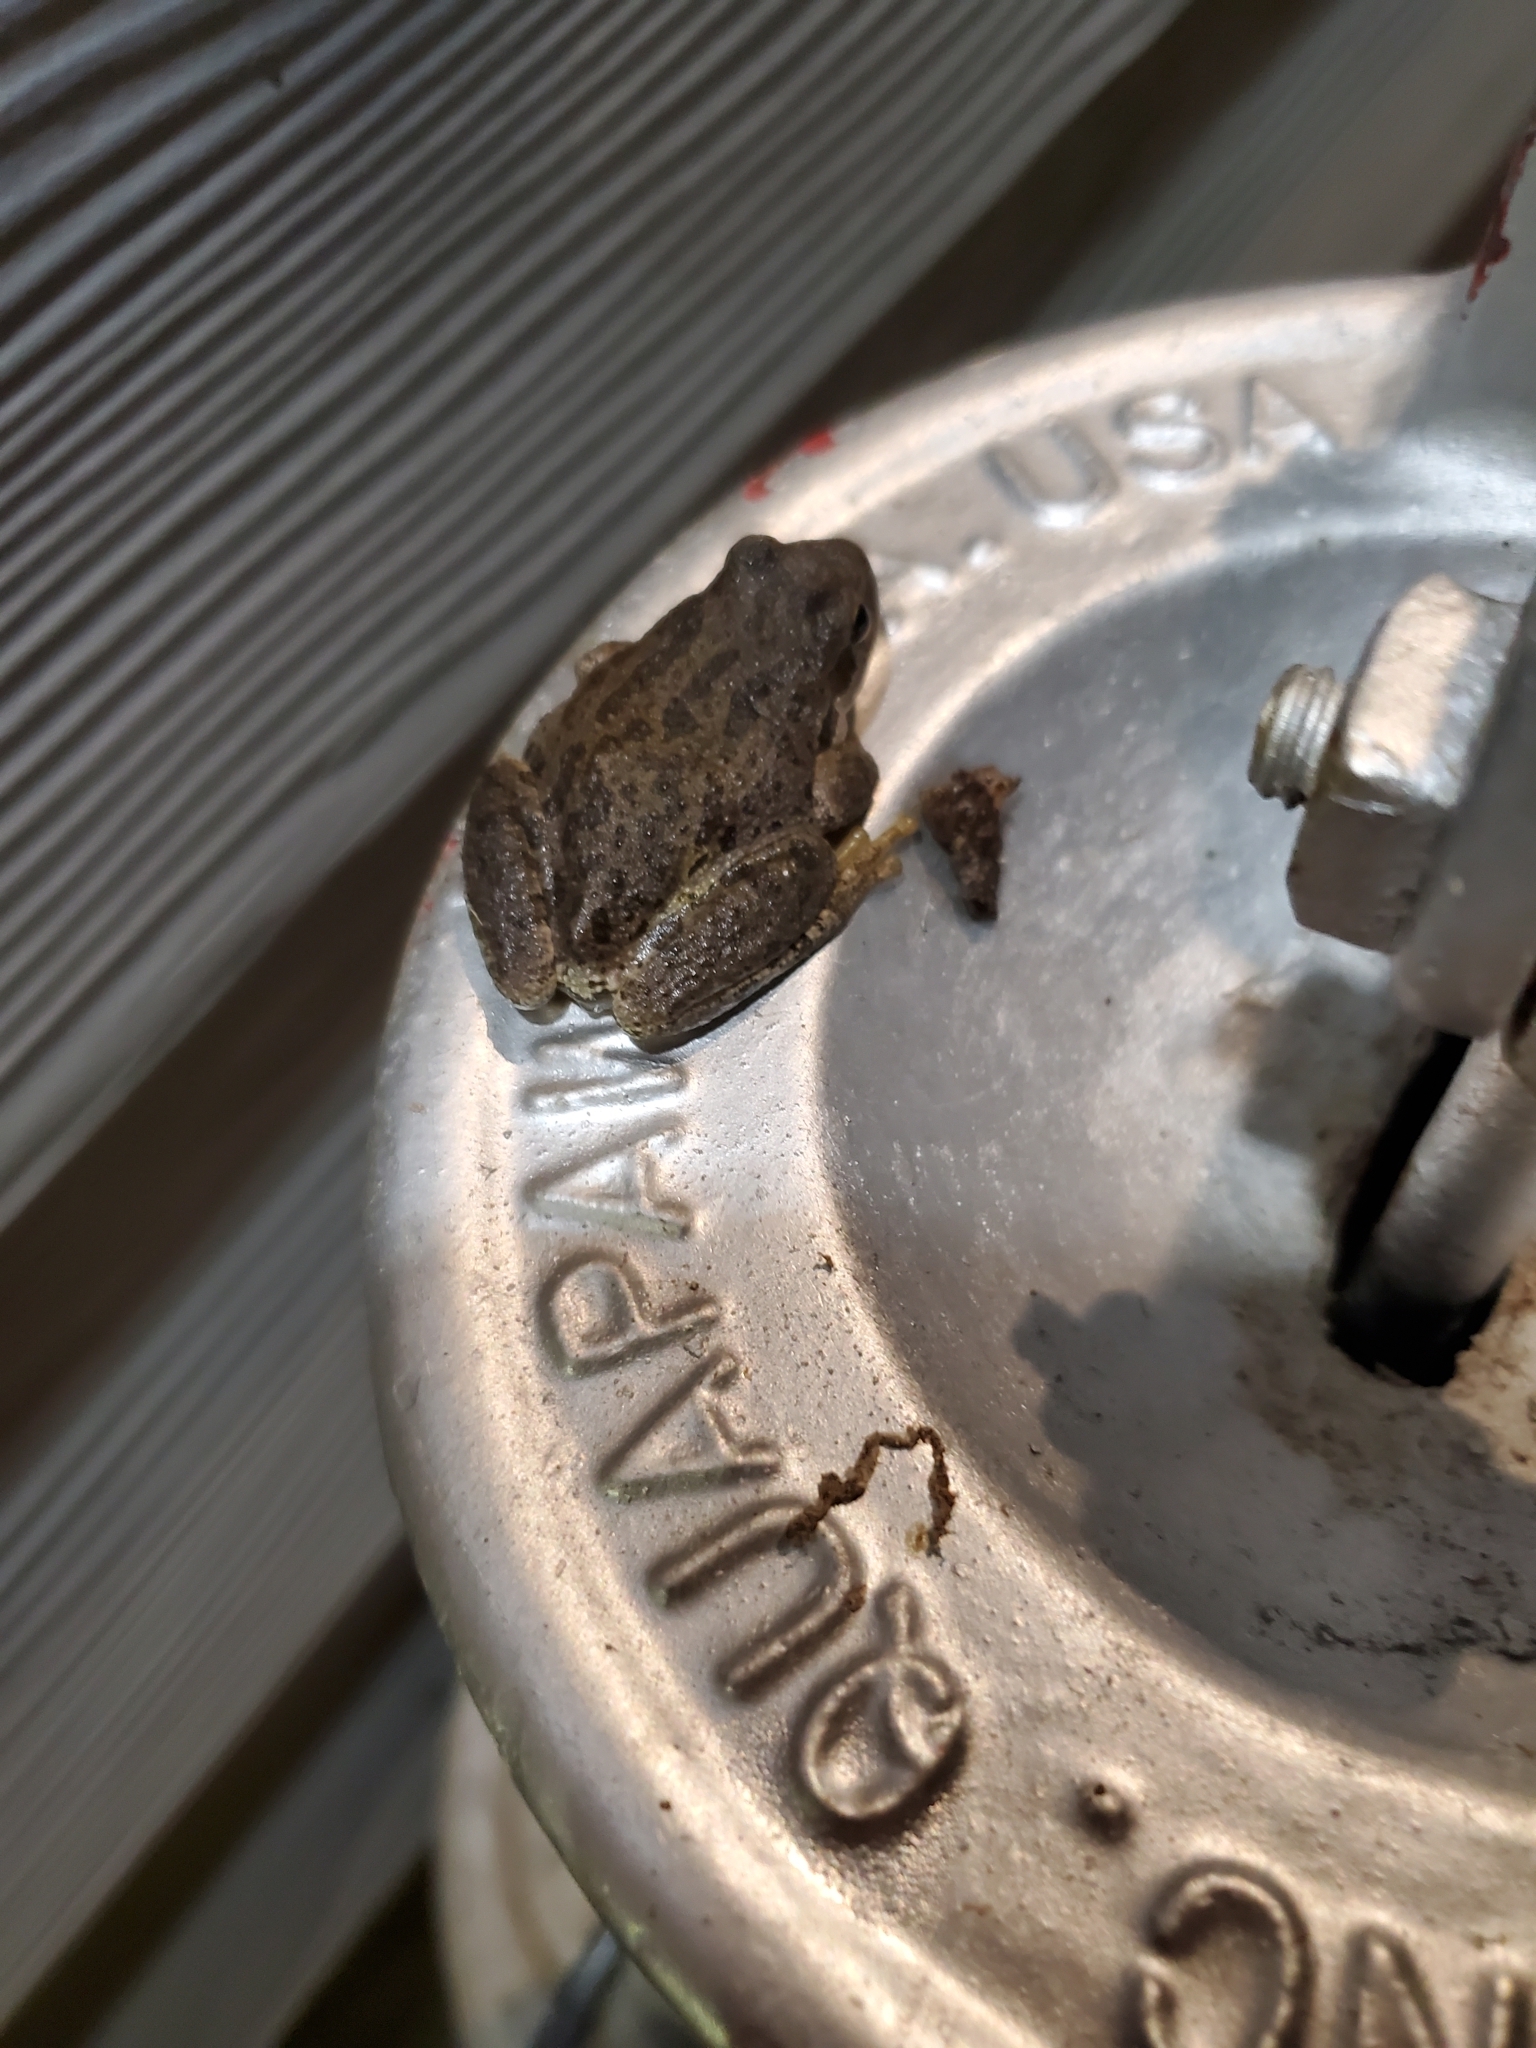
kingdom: Animalia
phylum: Chordata
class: Amphibia
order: Anura
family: Hylidae
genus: Pseudacris
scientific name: Pseudacris regilla
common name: Pacific chorus frog
